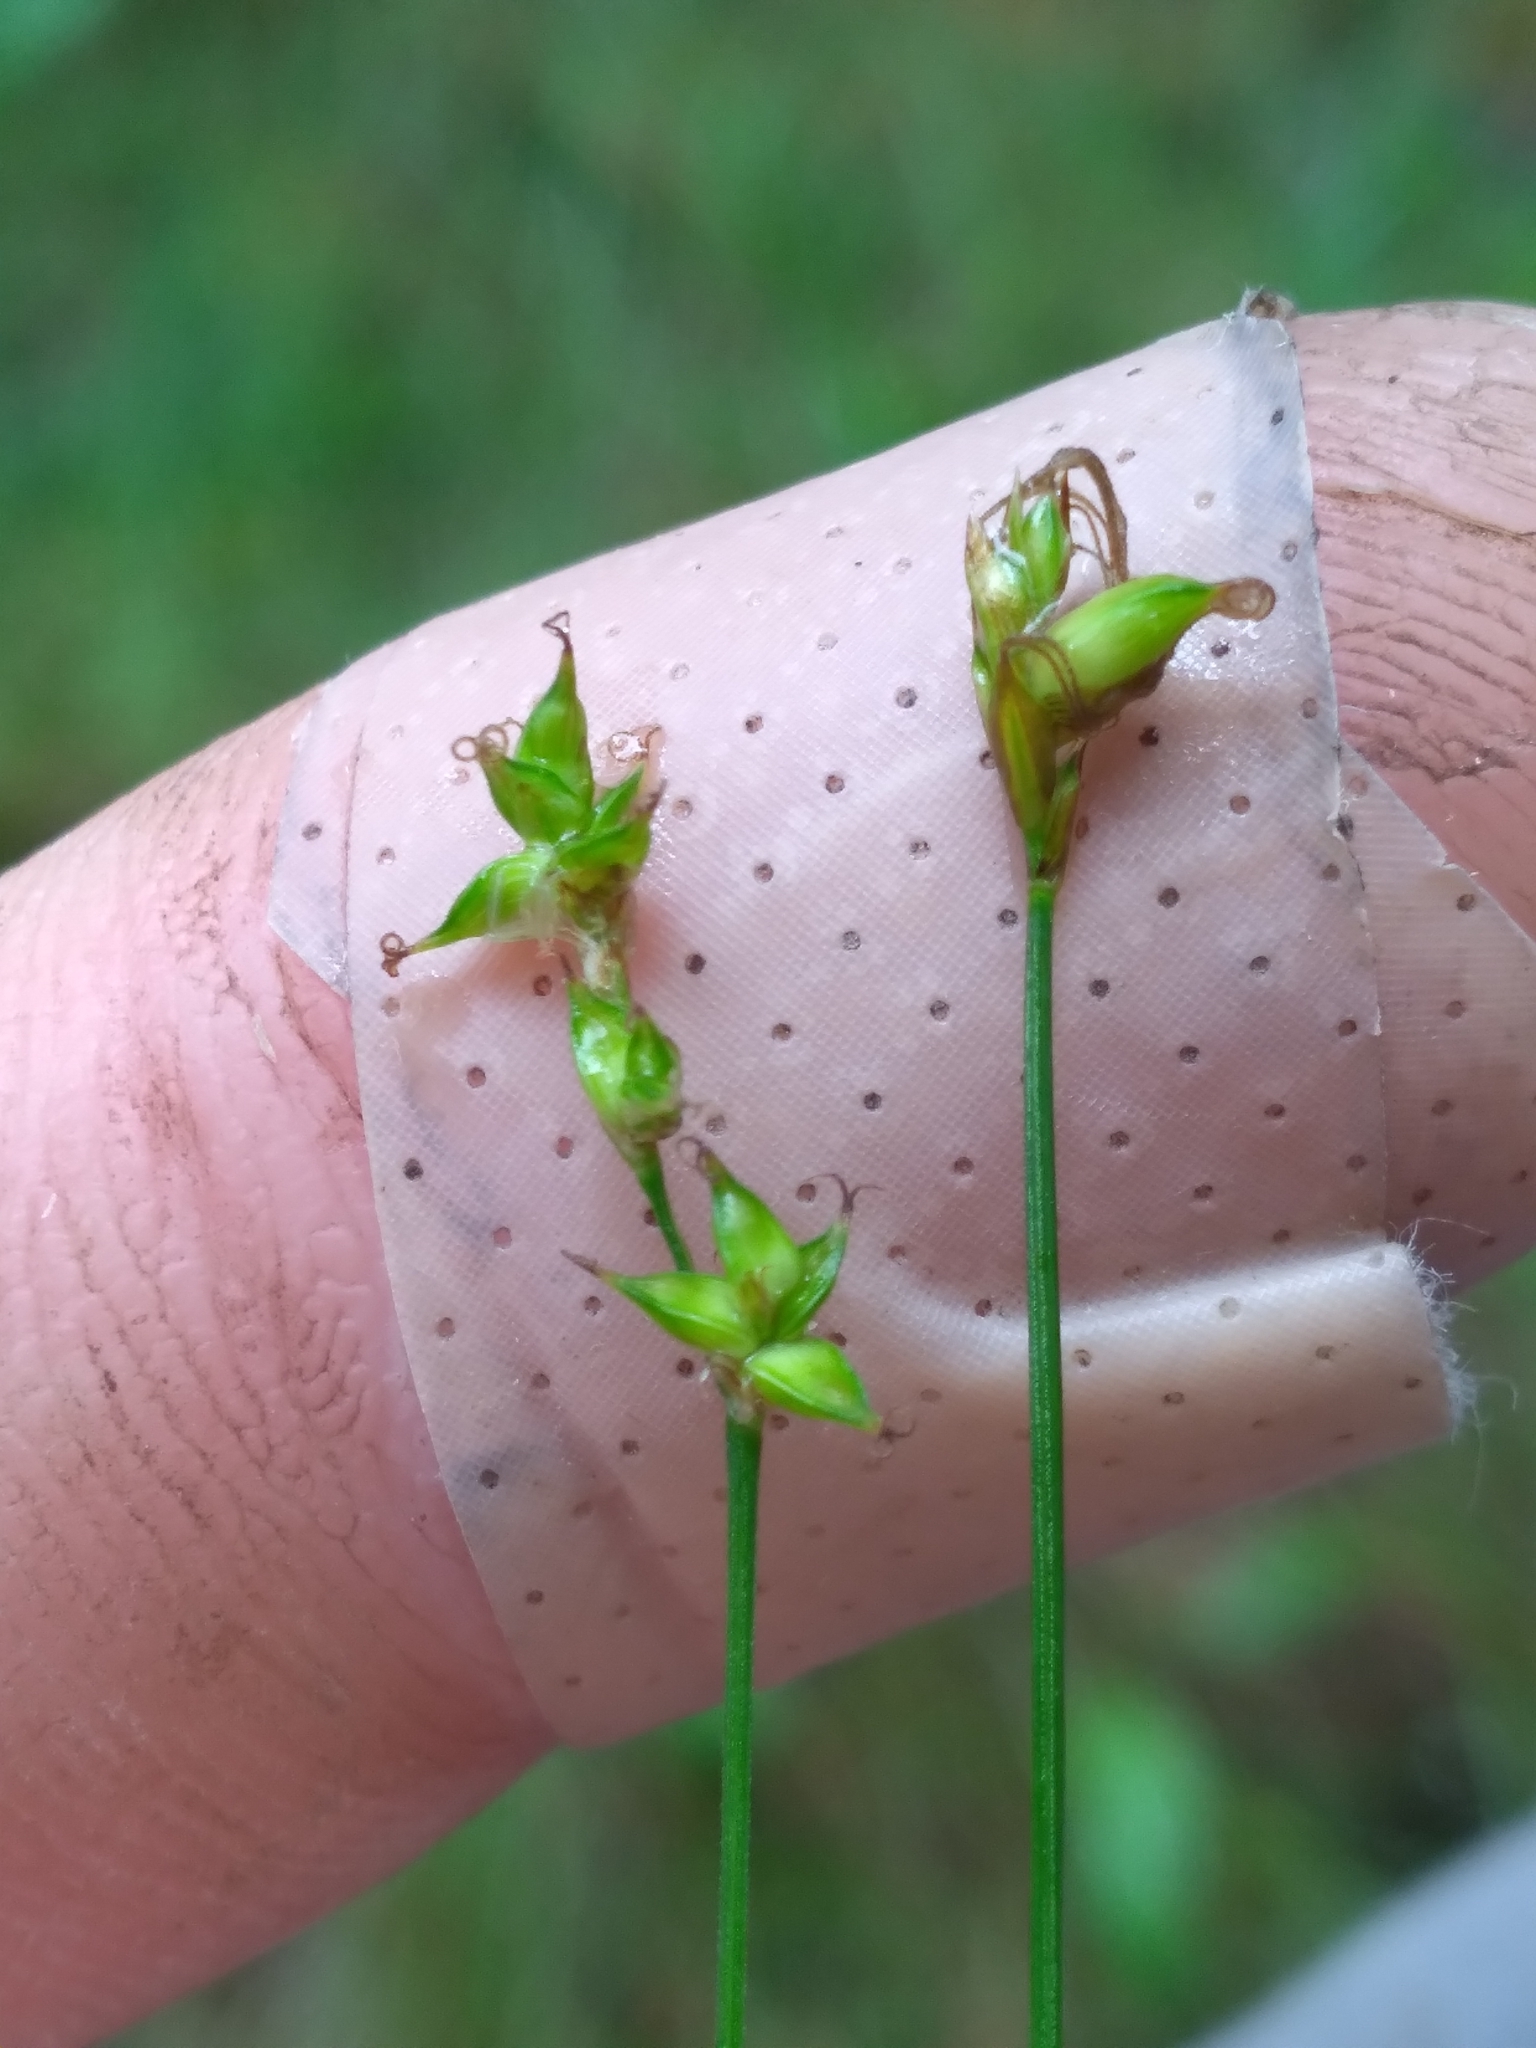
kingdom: Plantae
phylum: Tracheophyta
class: Liliopsida
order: Poales
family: Cyperaceae
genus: Carex
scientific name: Carex alascana
